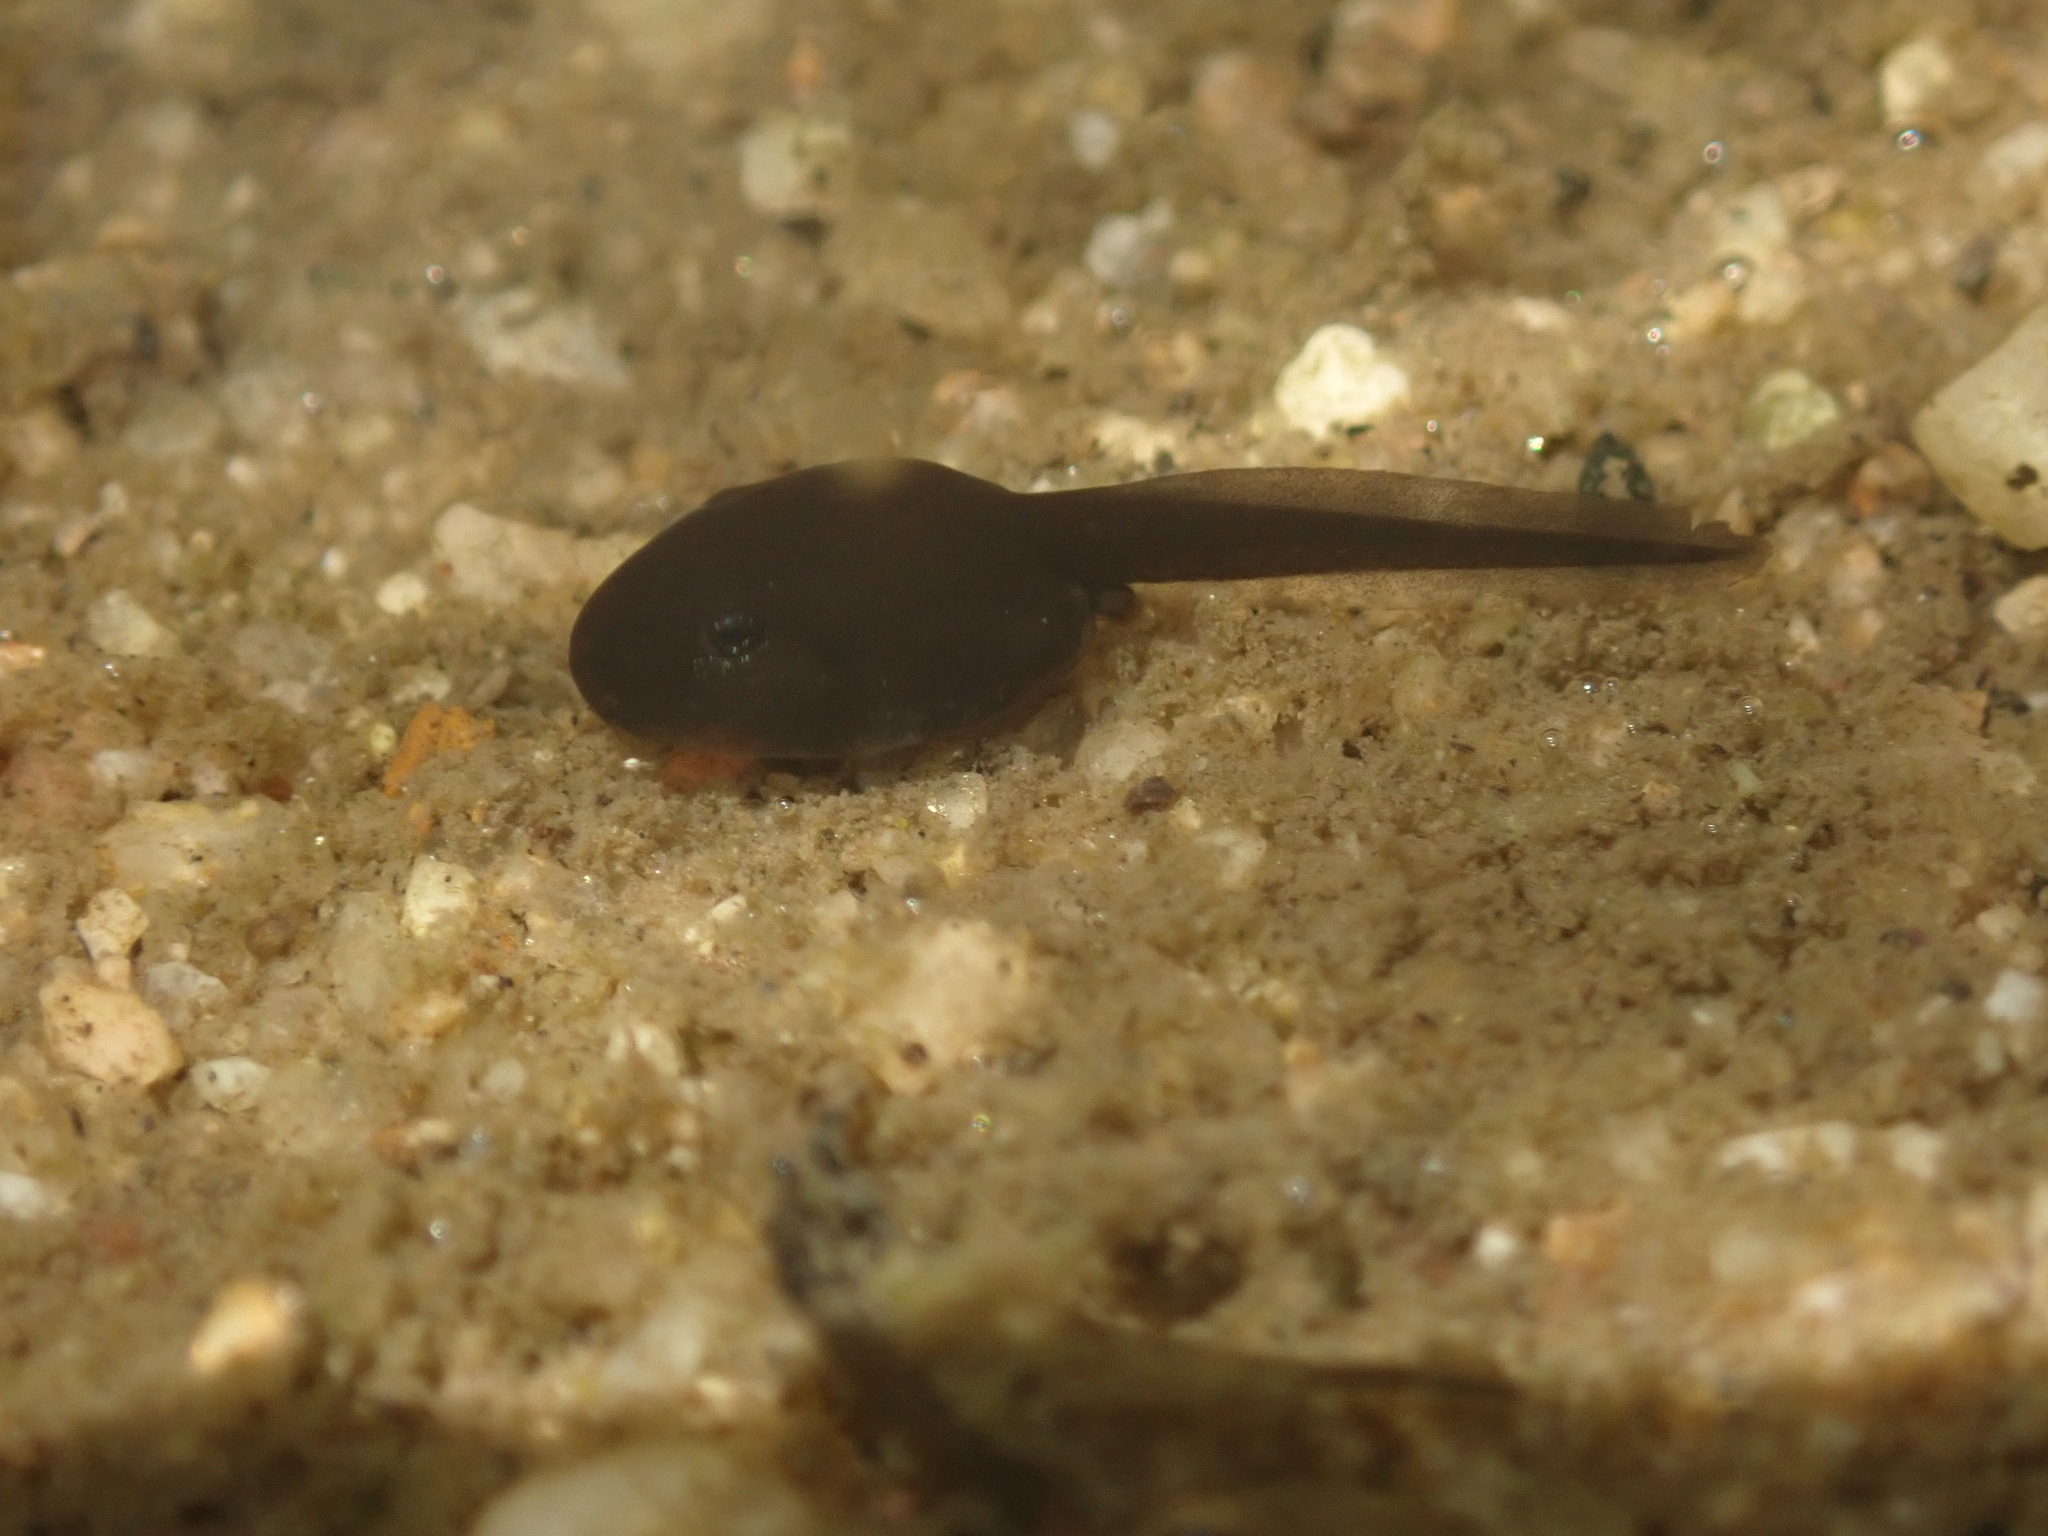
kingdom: Animalia
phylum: Chordata
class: Amphibia
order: Anura
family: Bufonidae
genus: Anaxyrus
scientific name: Anaxyrus boreas
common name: Western toad
